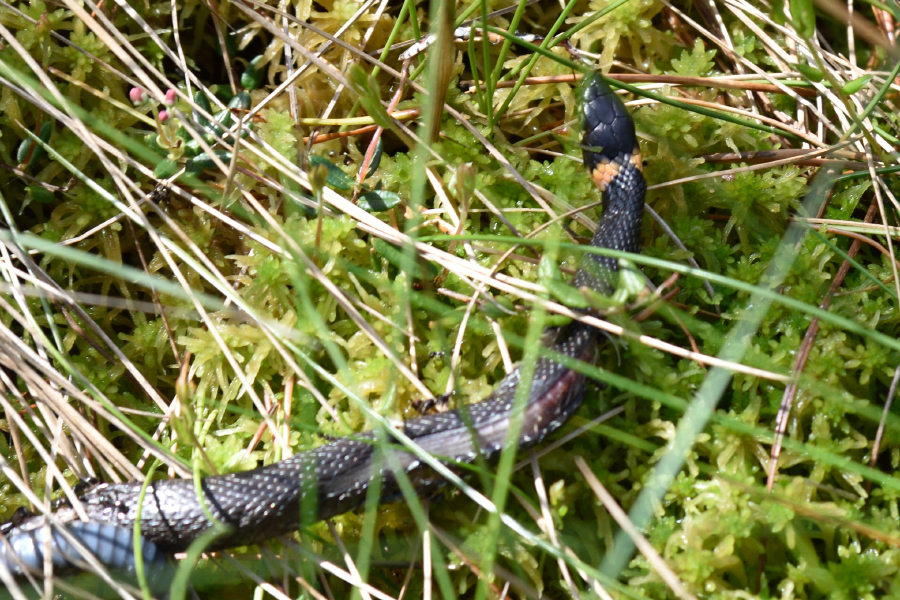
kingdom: Animalia
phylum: Chordata
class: Squamata
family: Colubridae
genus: Natrix
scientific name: Natrix natrix
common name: Grass snake
